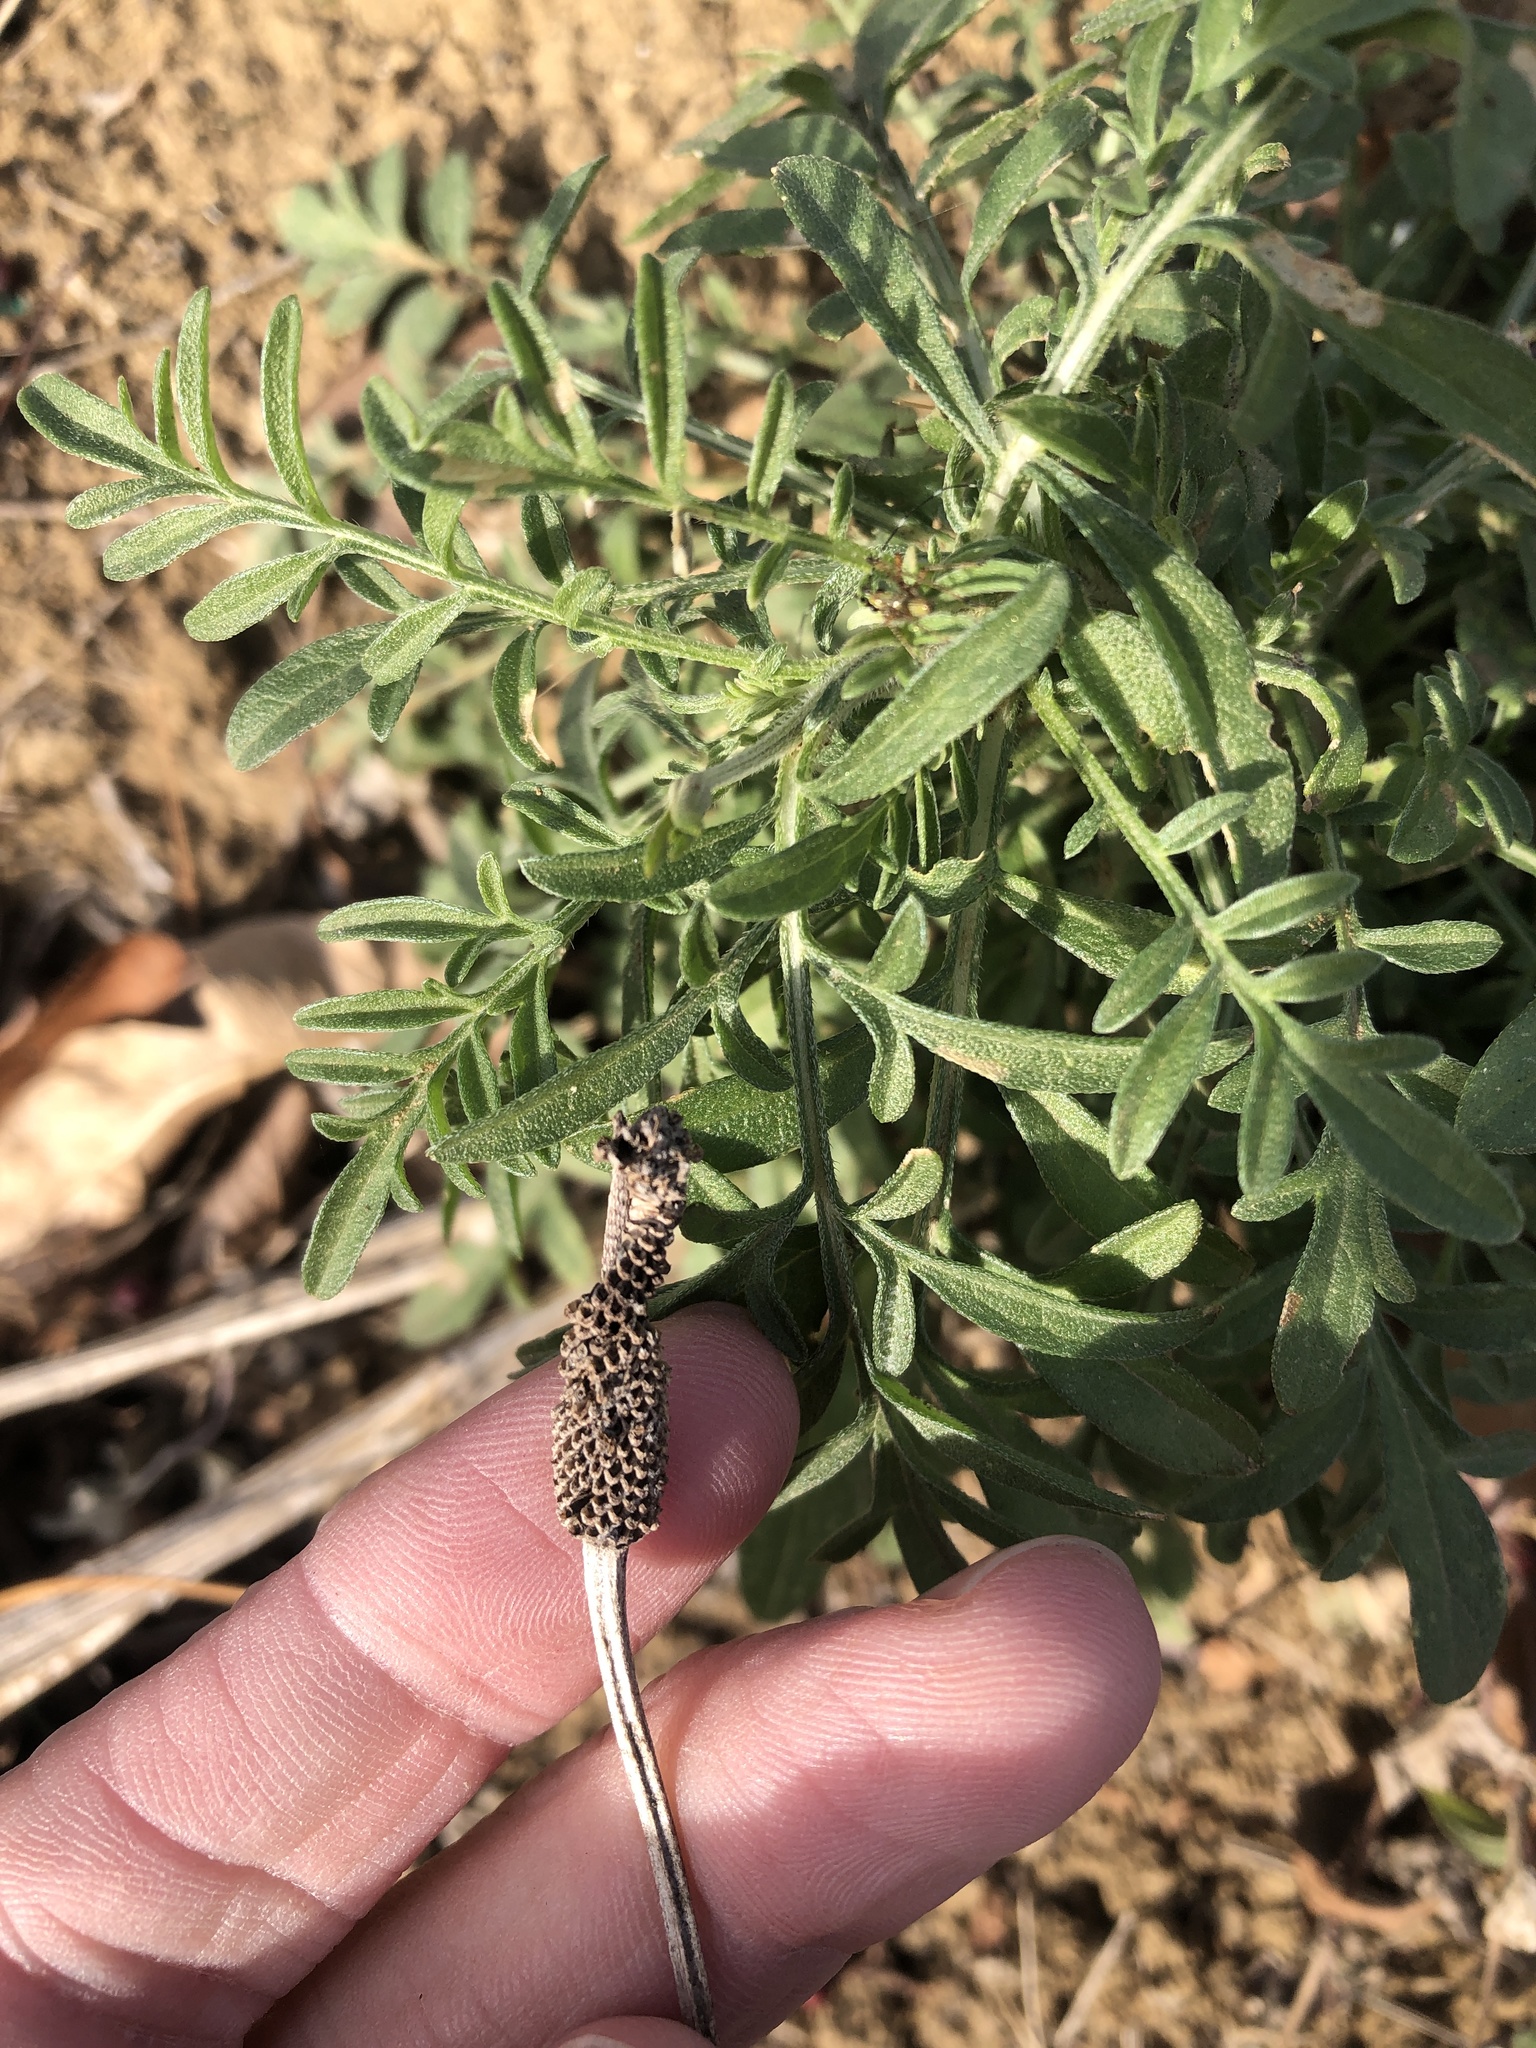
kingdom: Plantae
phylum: Tracheophyta
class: Magnoliopsida
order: Asterales
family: Asteraceae
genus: Ratibida
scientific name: Ratibida columnifera
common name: Prairie coneflower
